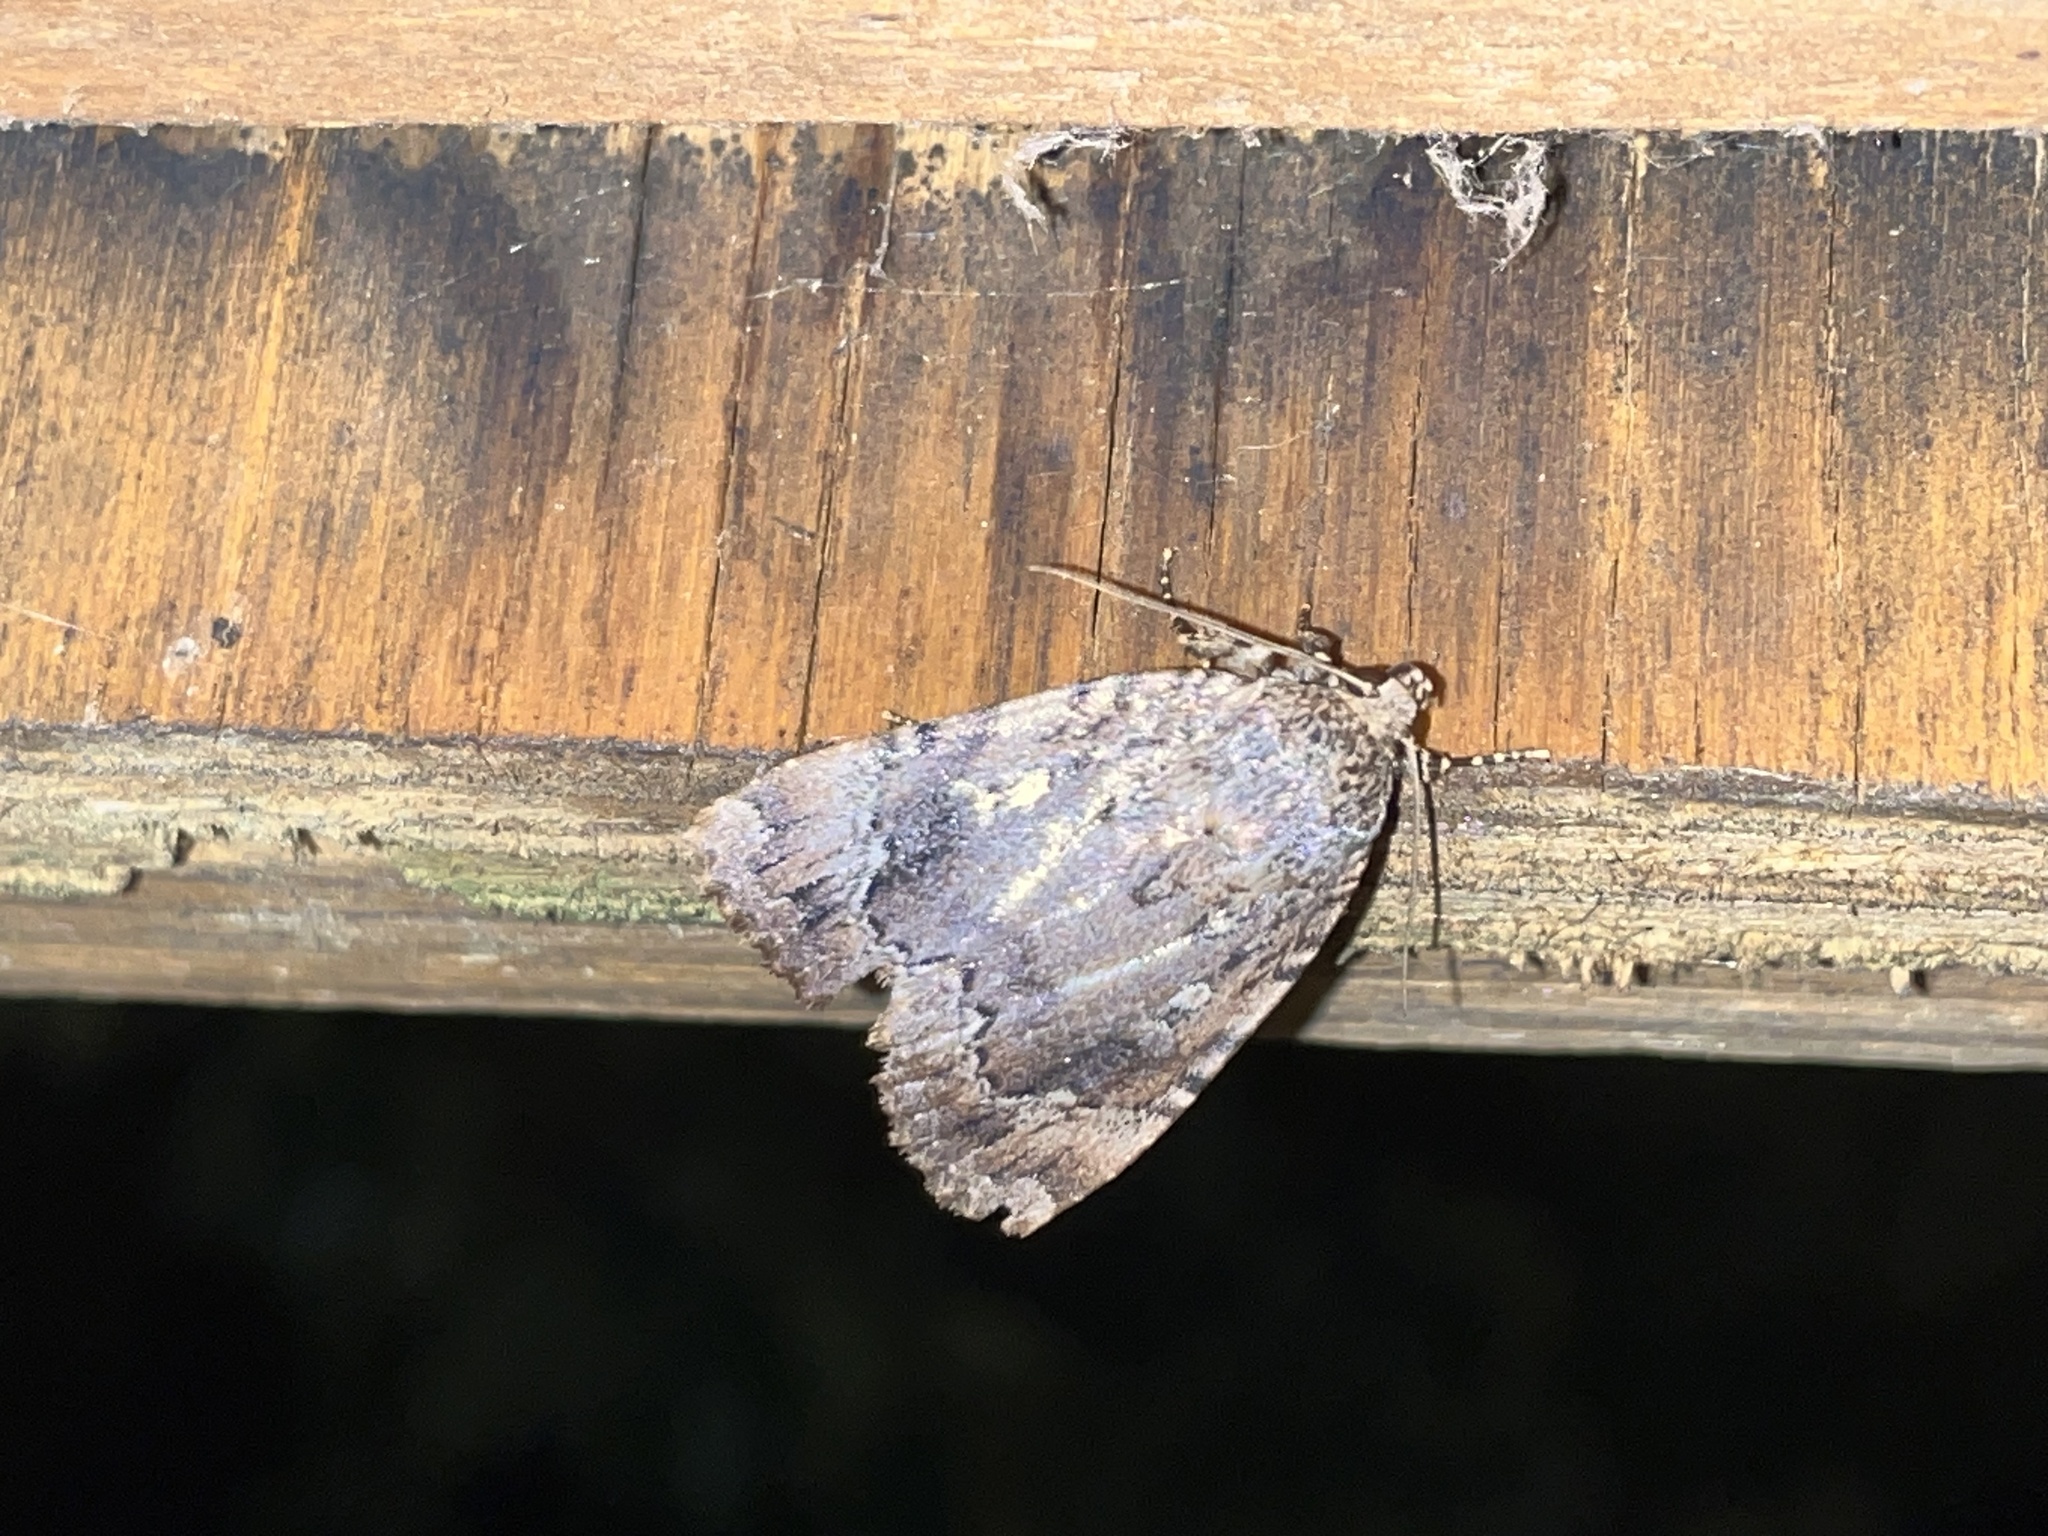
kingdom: Animalia
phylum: Arthropoda
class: Insecta
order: Lepidoptera
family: Noctuidae
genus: Amphipyra
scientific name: Amphipyra pyramidoides
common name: American copper underwing
